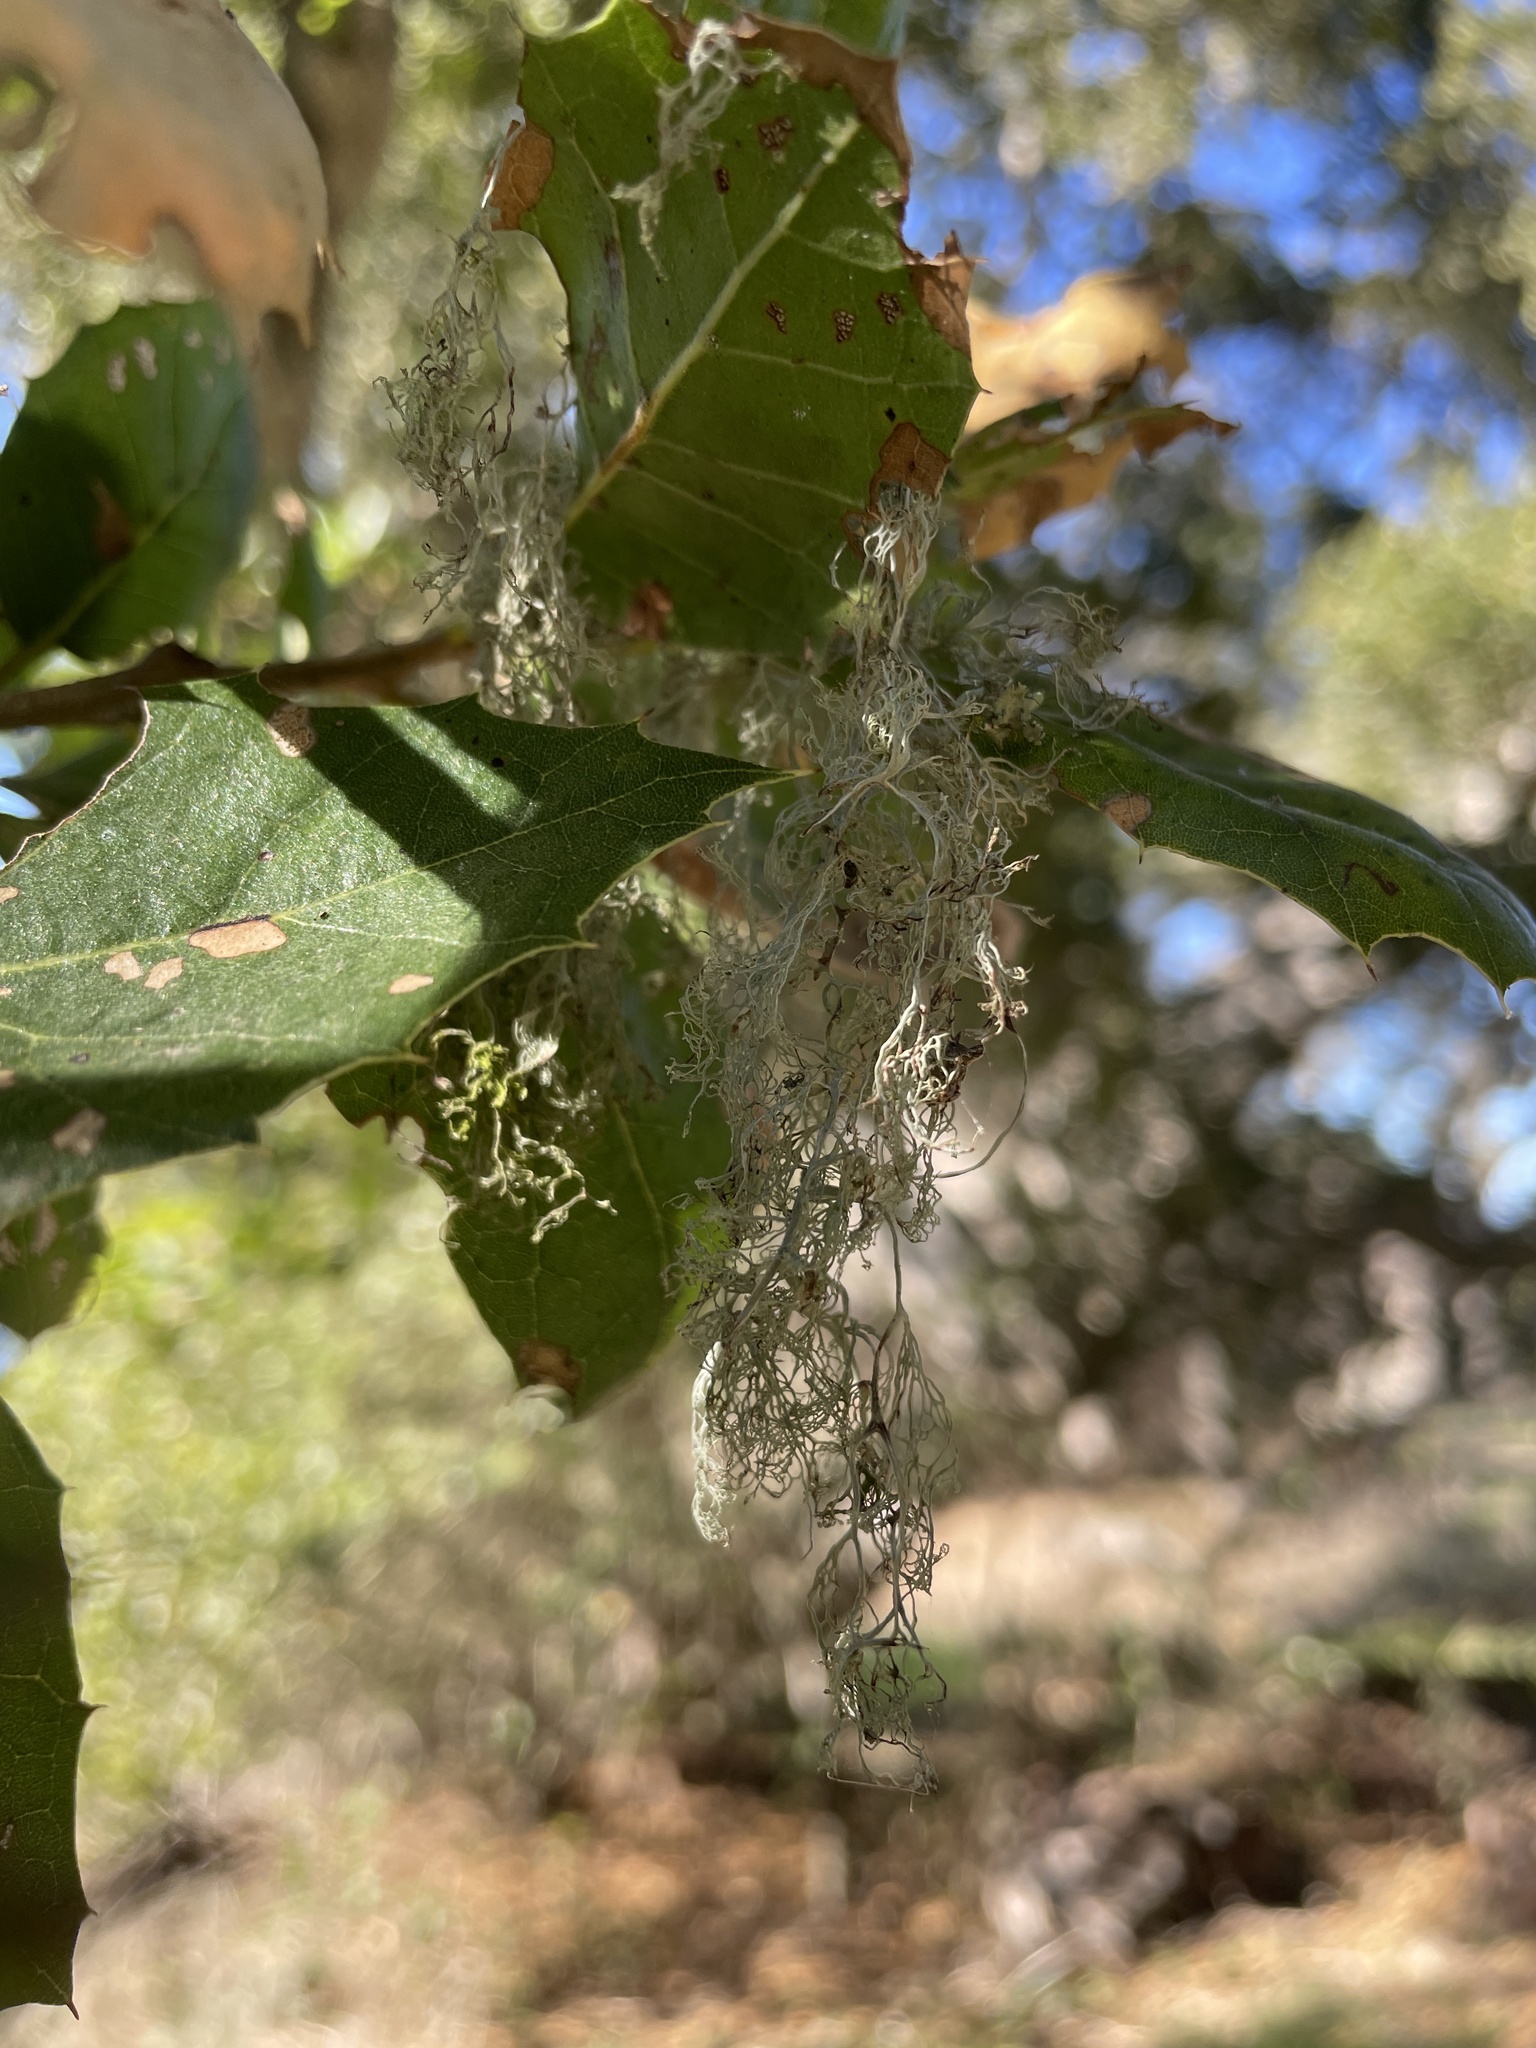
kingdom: Fungi
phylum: Ascomycota
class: Lecanoromycetes
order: Lecanorales
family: Ramalinaceae
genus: Ramalina
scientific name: Ramalina menziesii
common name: Lace lichen
